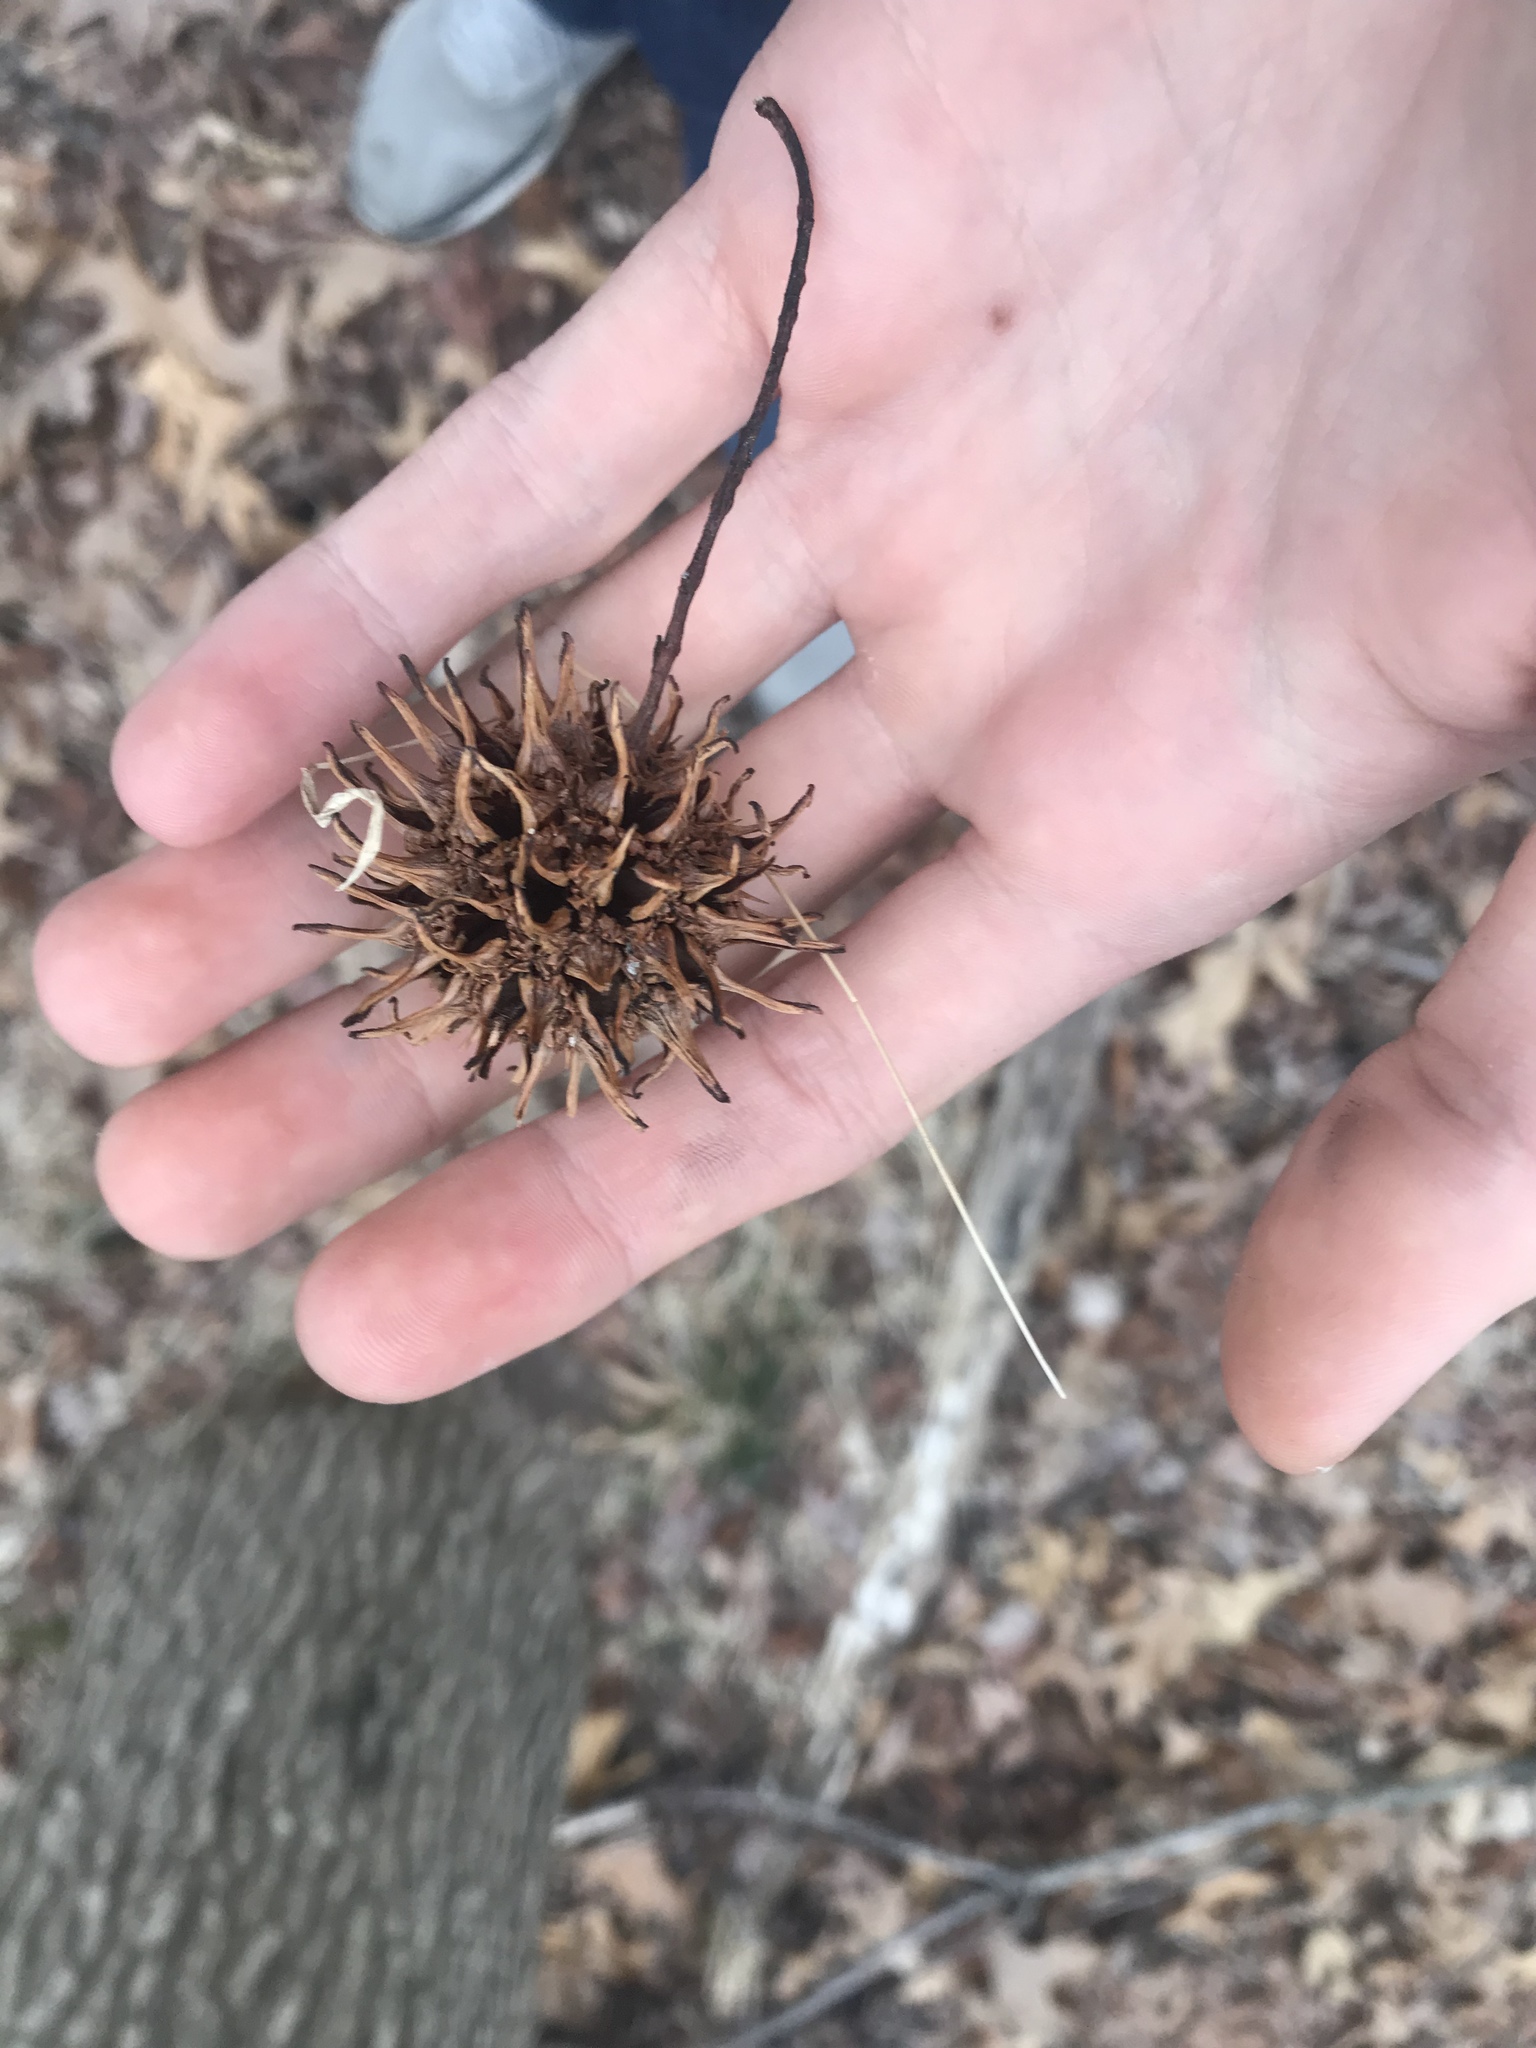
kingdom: Plantae
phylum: Tracheophyta
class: Magnoliopsida
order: Saxifragales
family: Altingiaceae
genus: Liquidambar
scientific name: Liquidambar styraciflua
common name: Sweet gum
